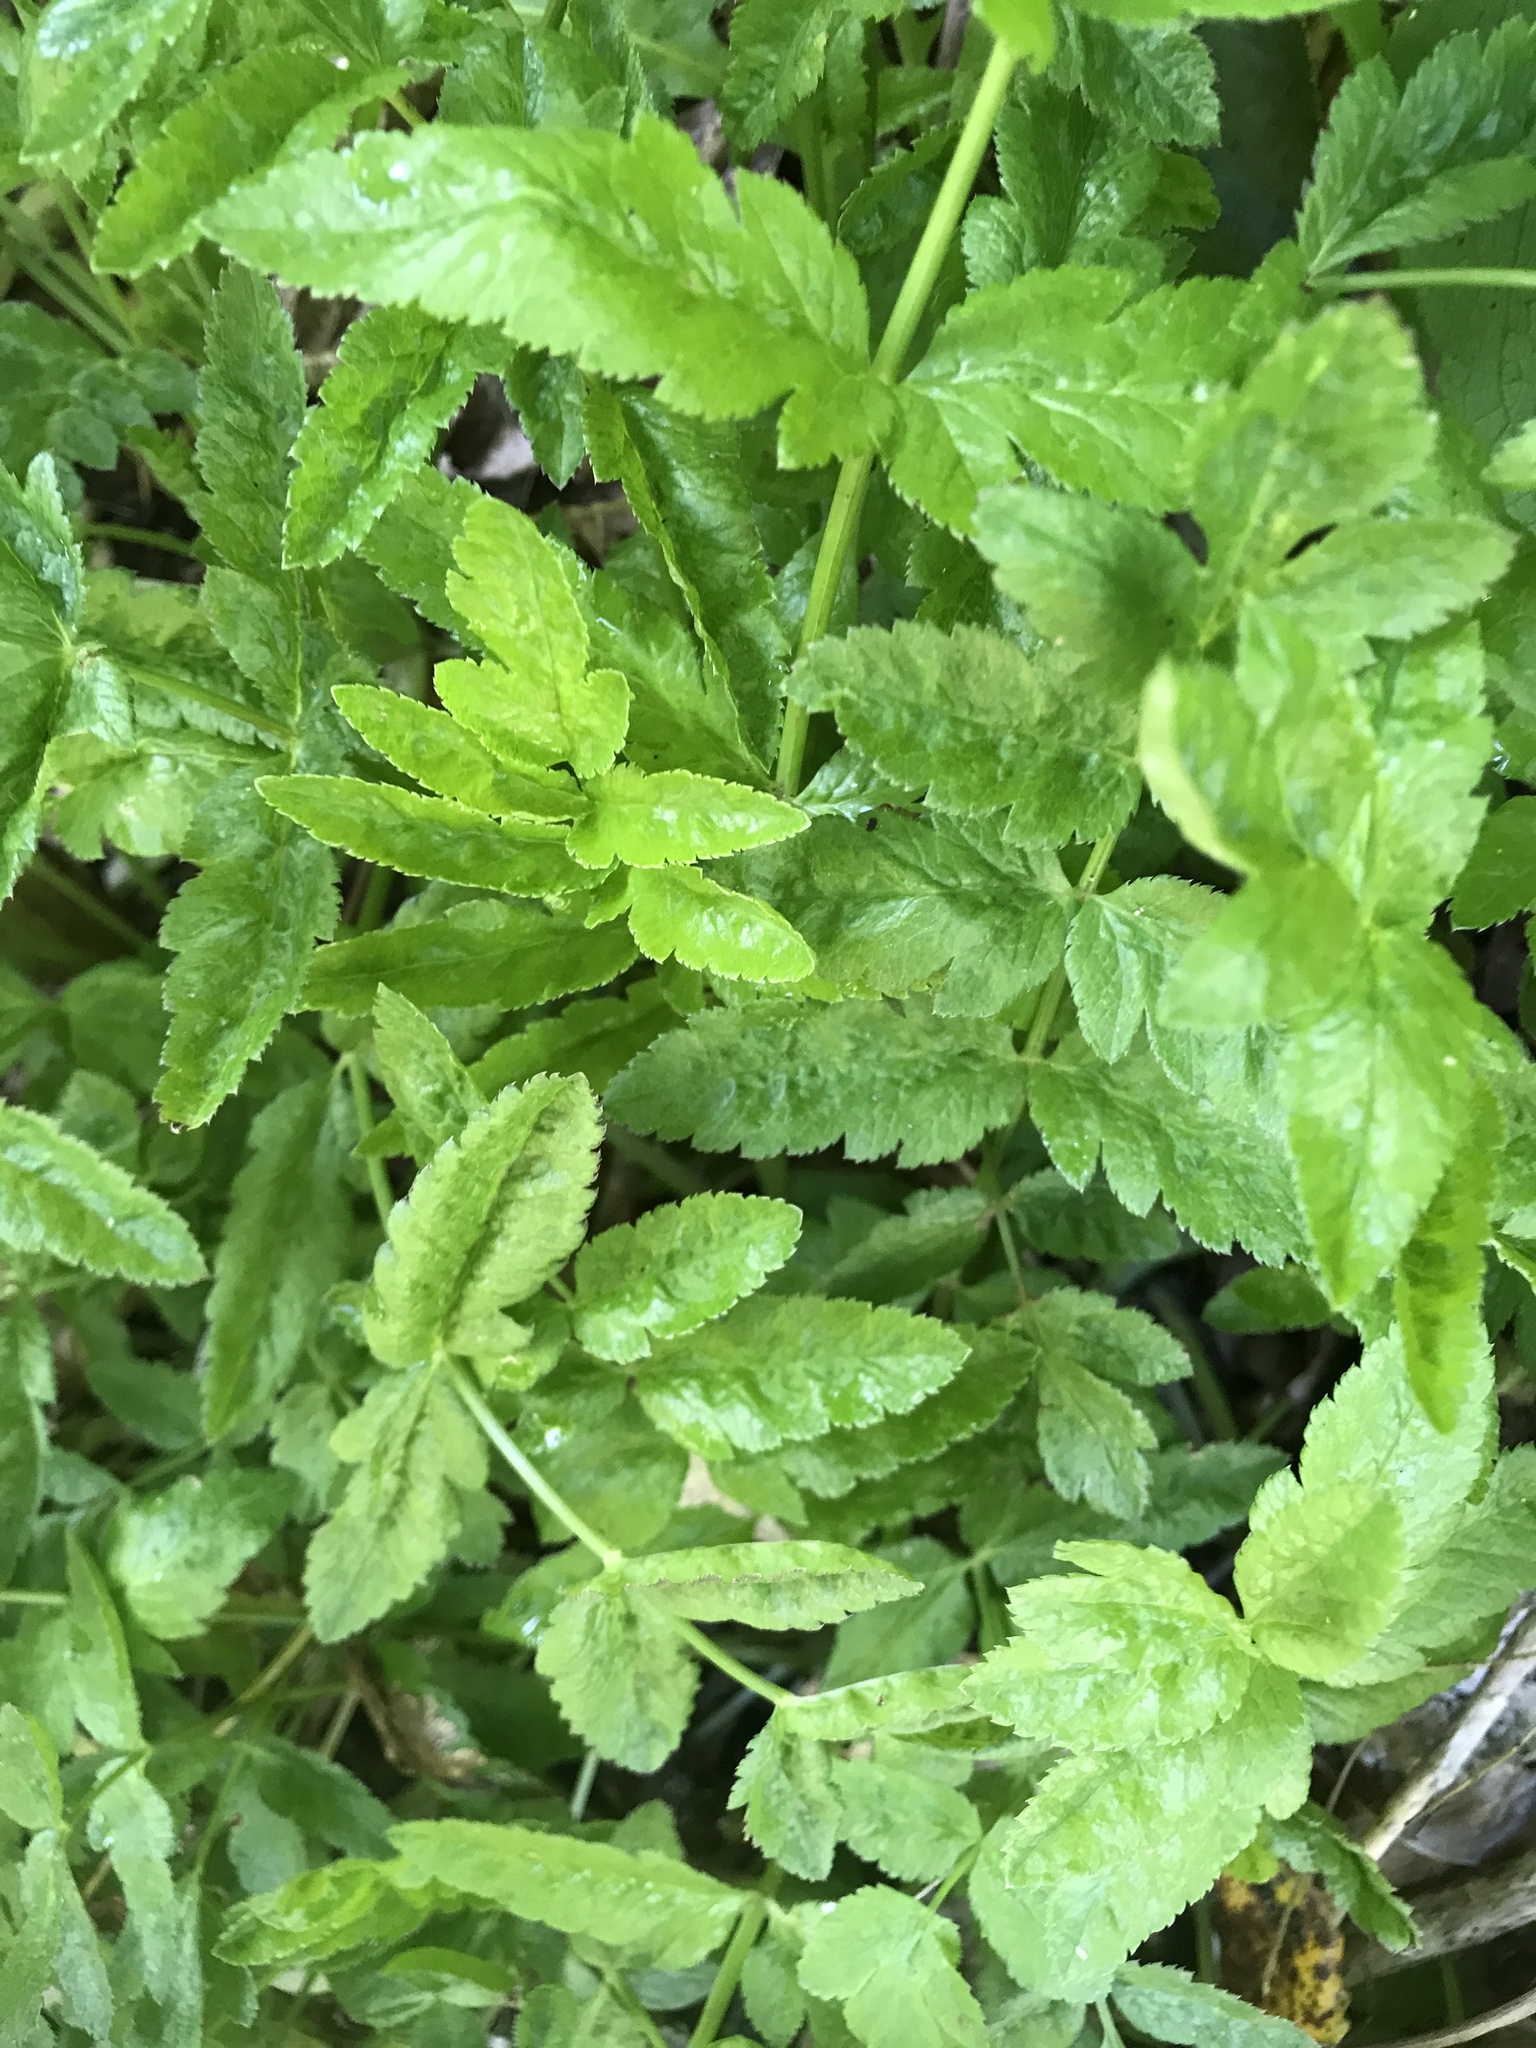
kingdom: Plantae
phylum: Tracheophyta
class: Magnoliopsida
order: Apiales
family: Apiaceae
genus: Helosciadium
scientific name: Helosciadium nodiflorum
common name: Fool's-watercress
